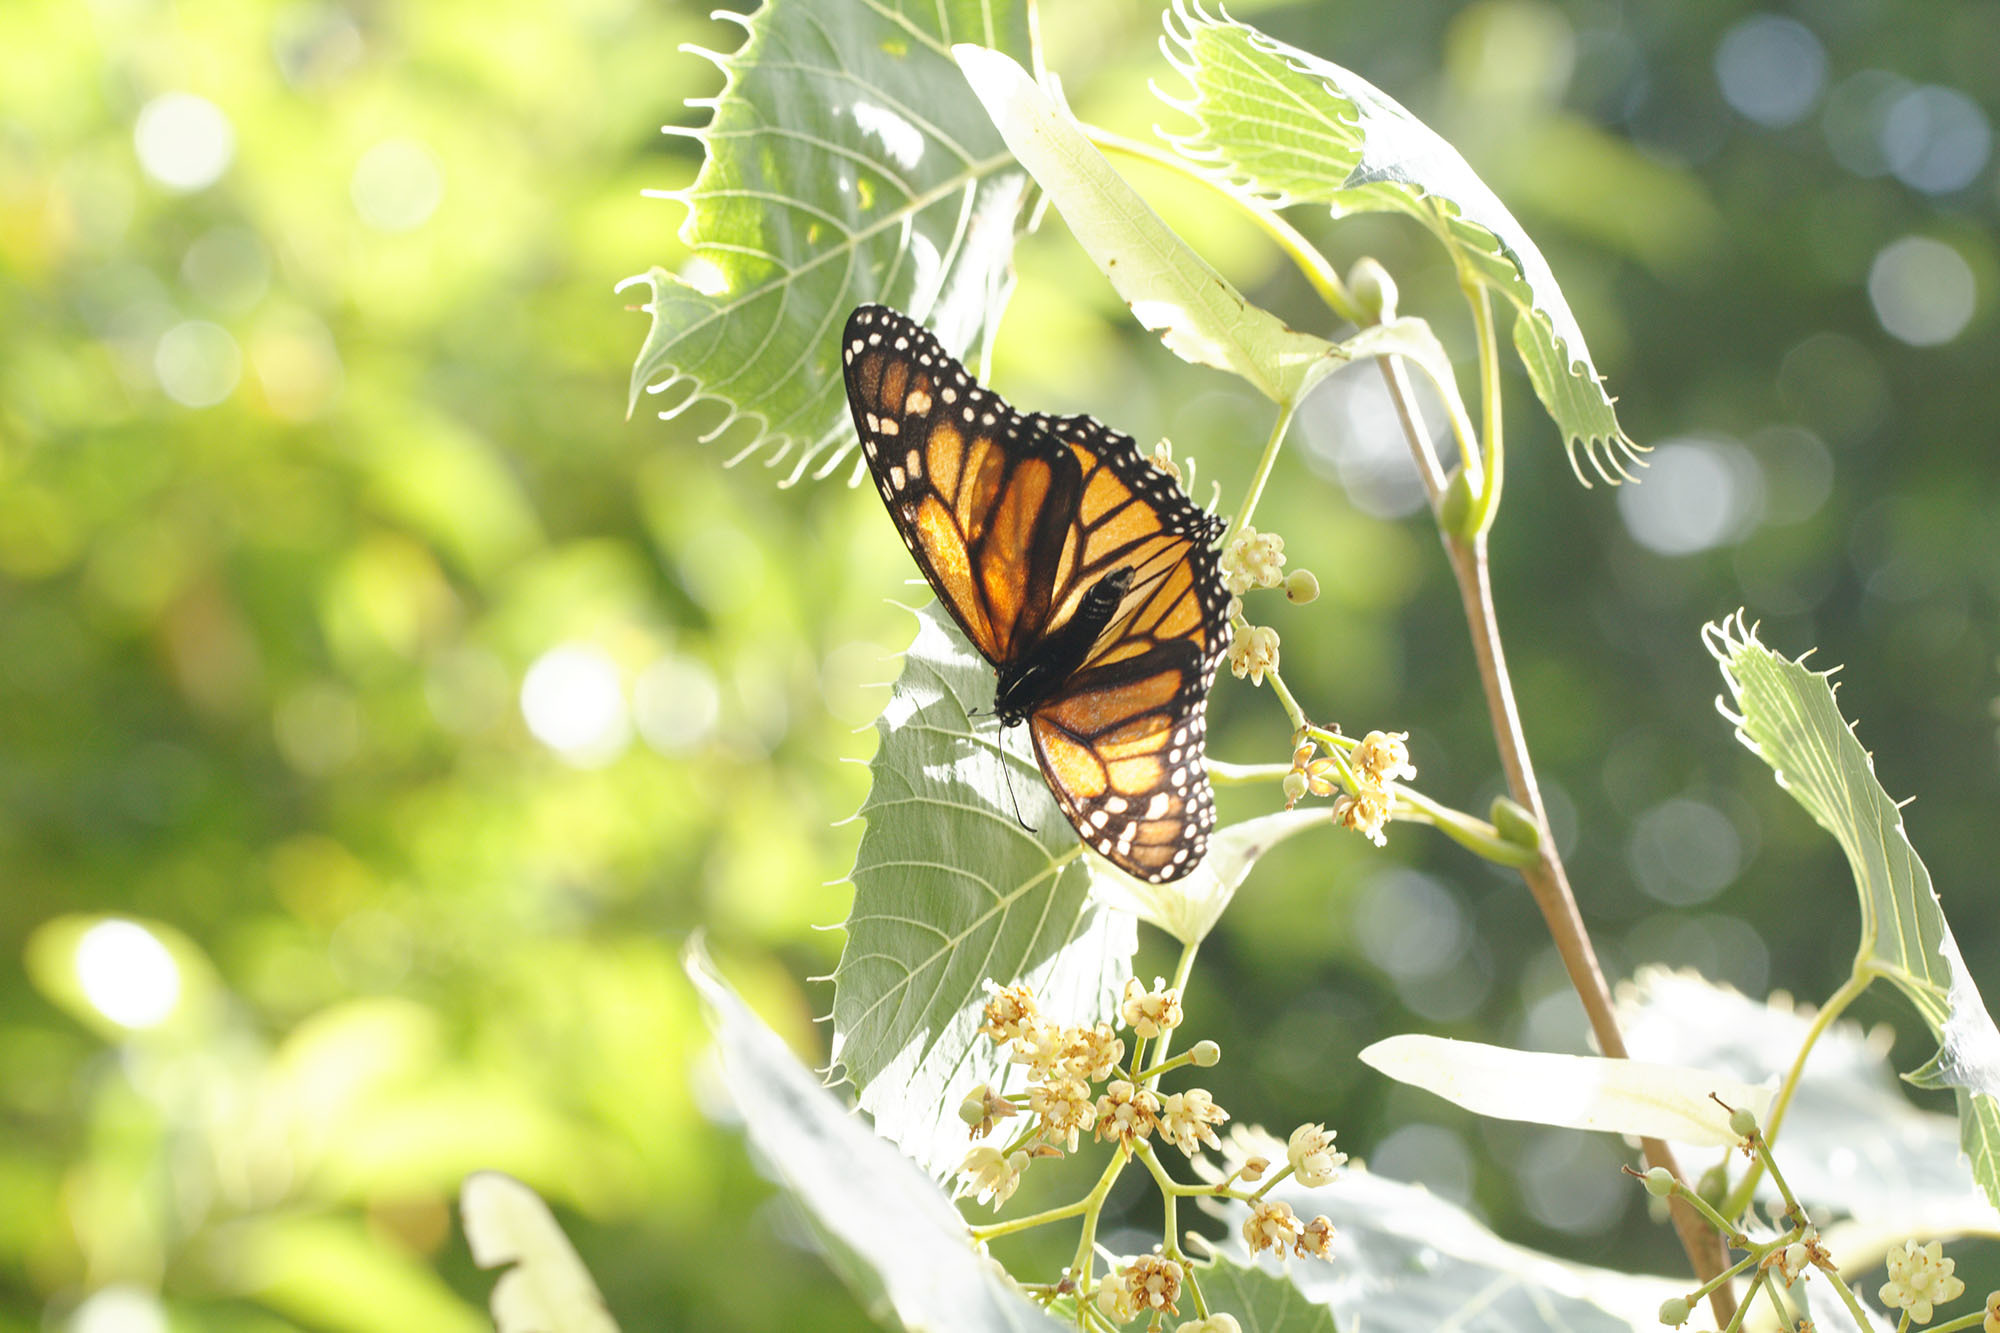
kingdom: Animalia
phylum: Arthropoda
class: Insecta
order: Lepidoptera
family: Nymphalidae
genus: Danaus
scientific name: Danaus plexippus
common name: Monarch
